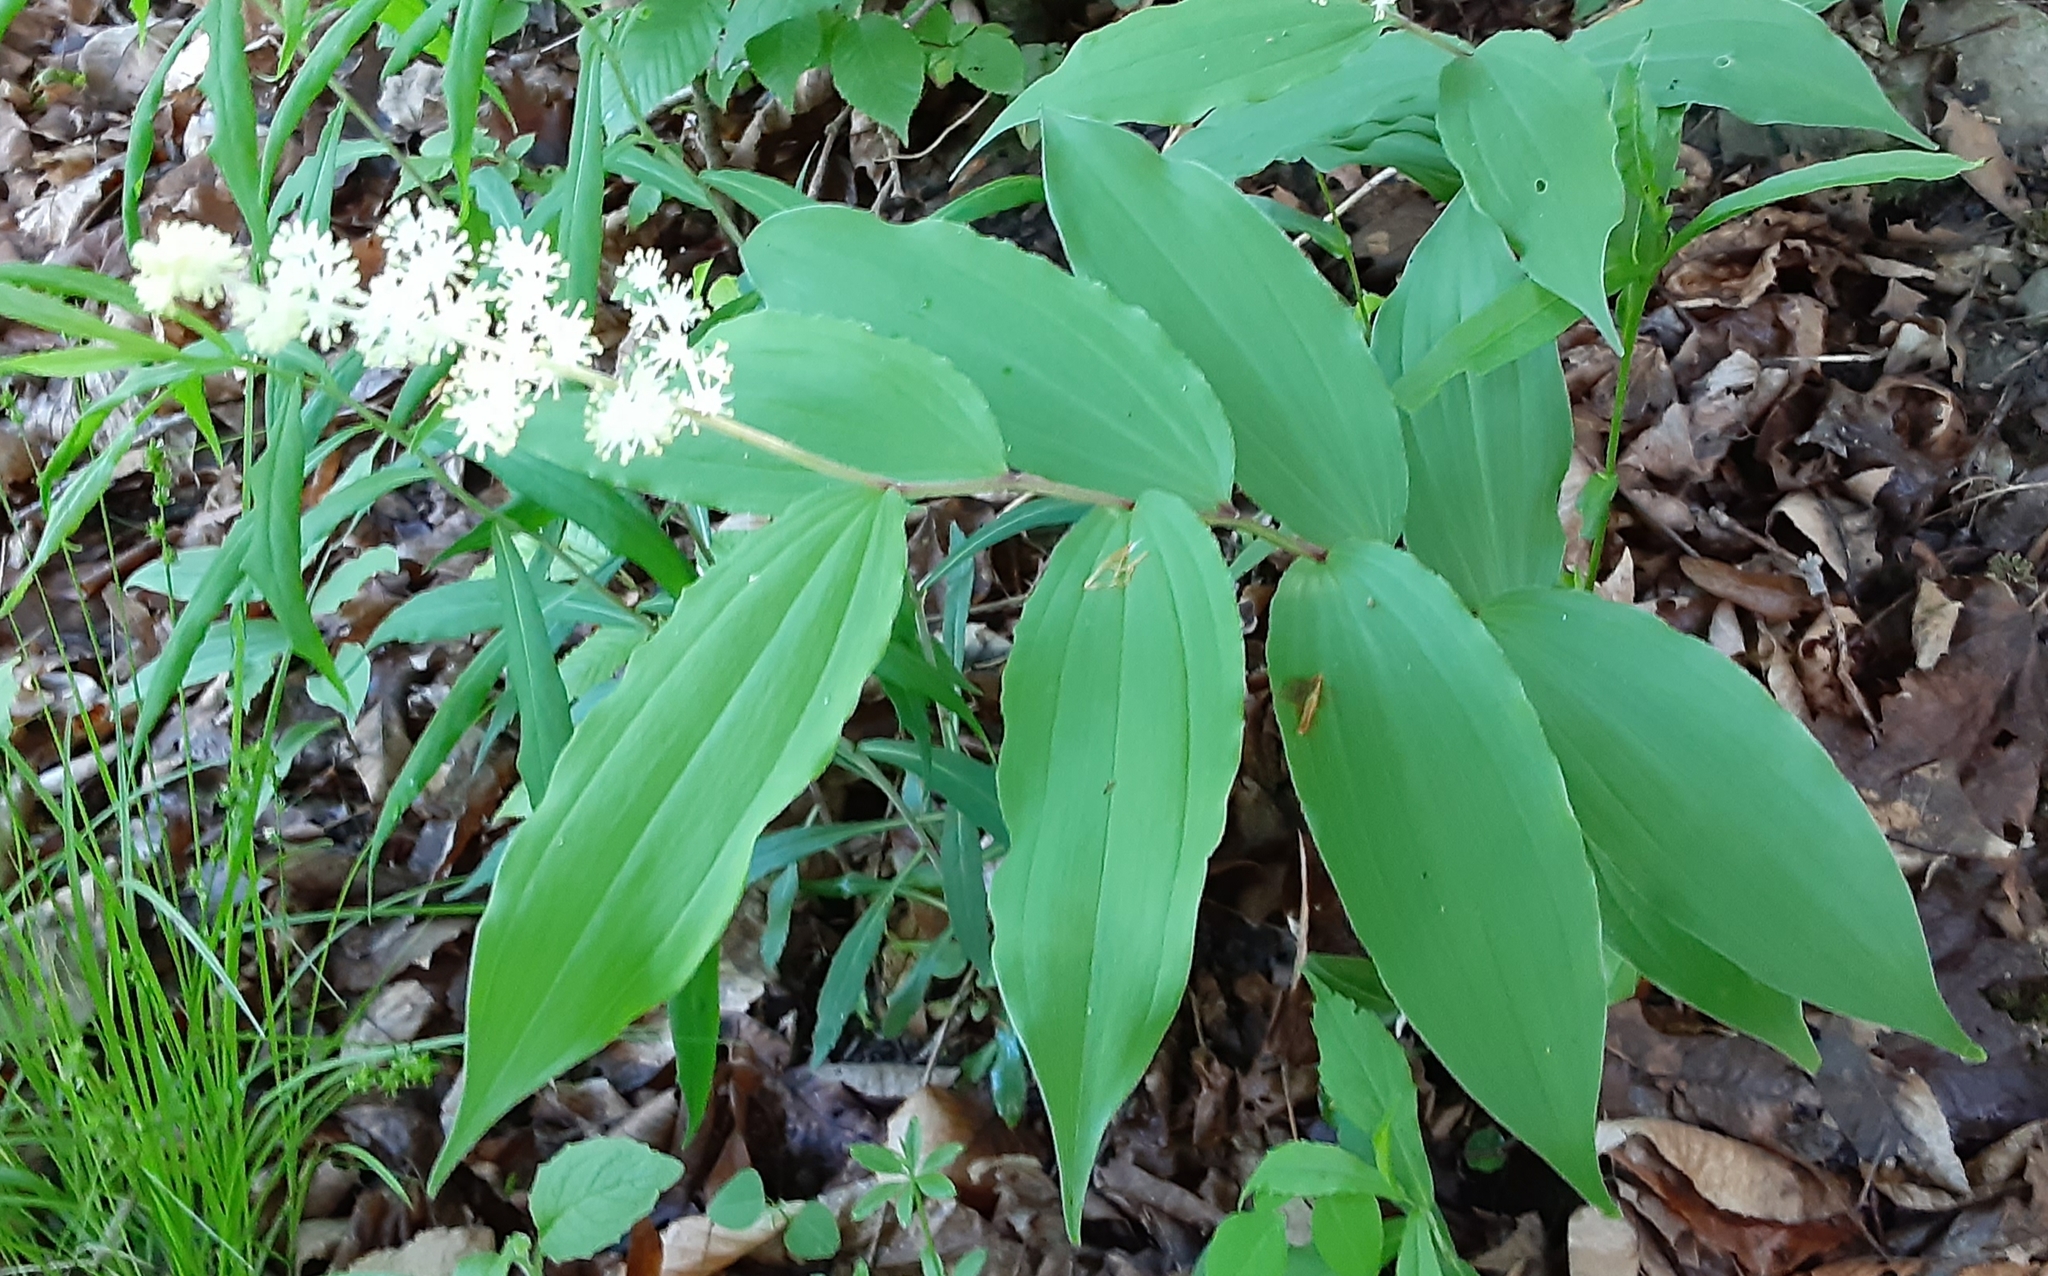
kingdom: Plantae
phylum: Tracheophyta
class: Liliopsida
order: Asparagales
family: Asparagaceae
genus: Maianthemum
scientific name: Maianthemum racemosum
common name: False spikenard
